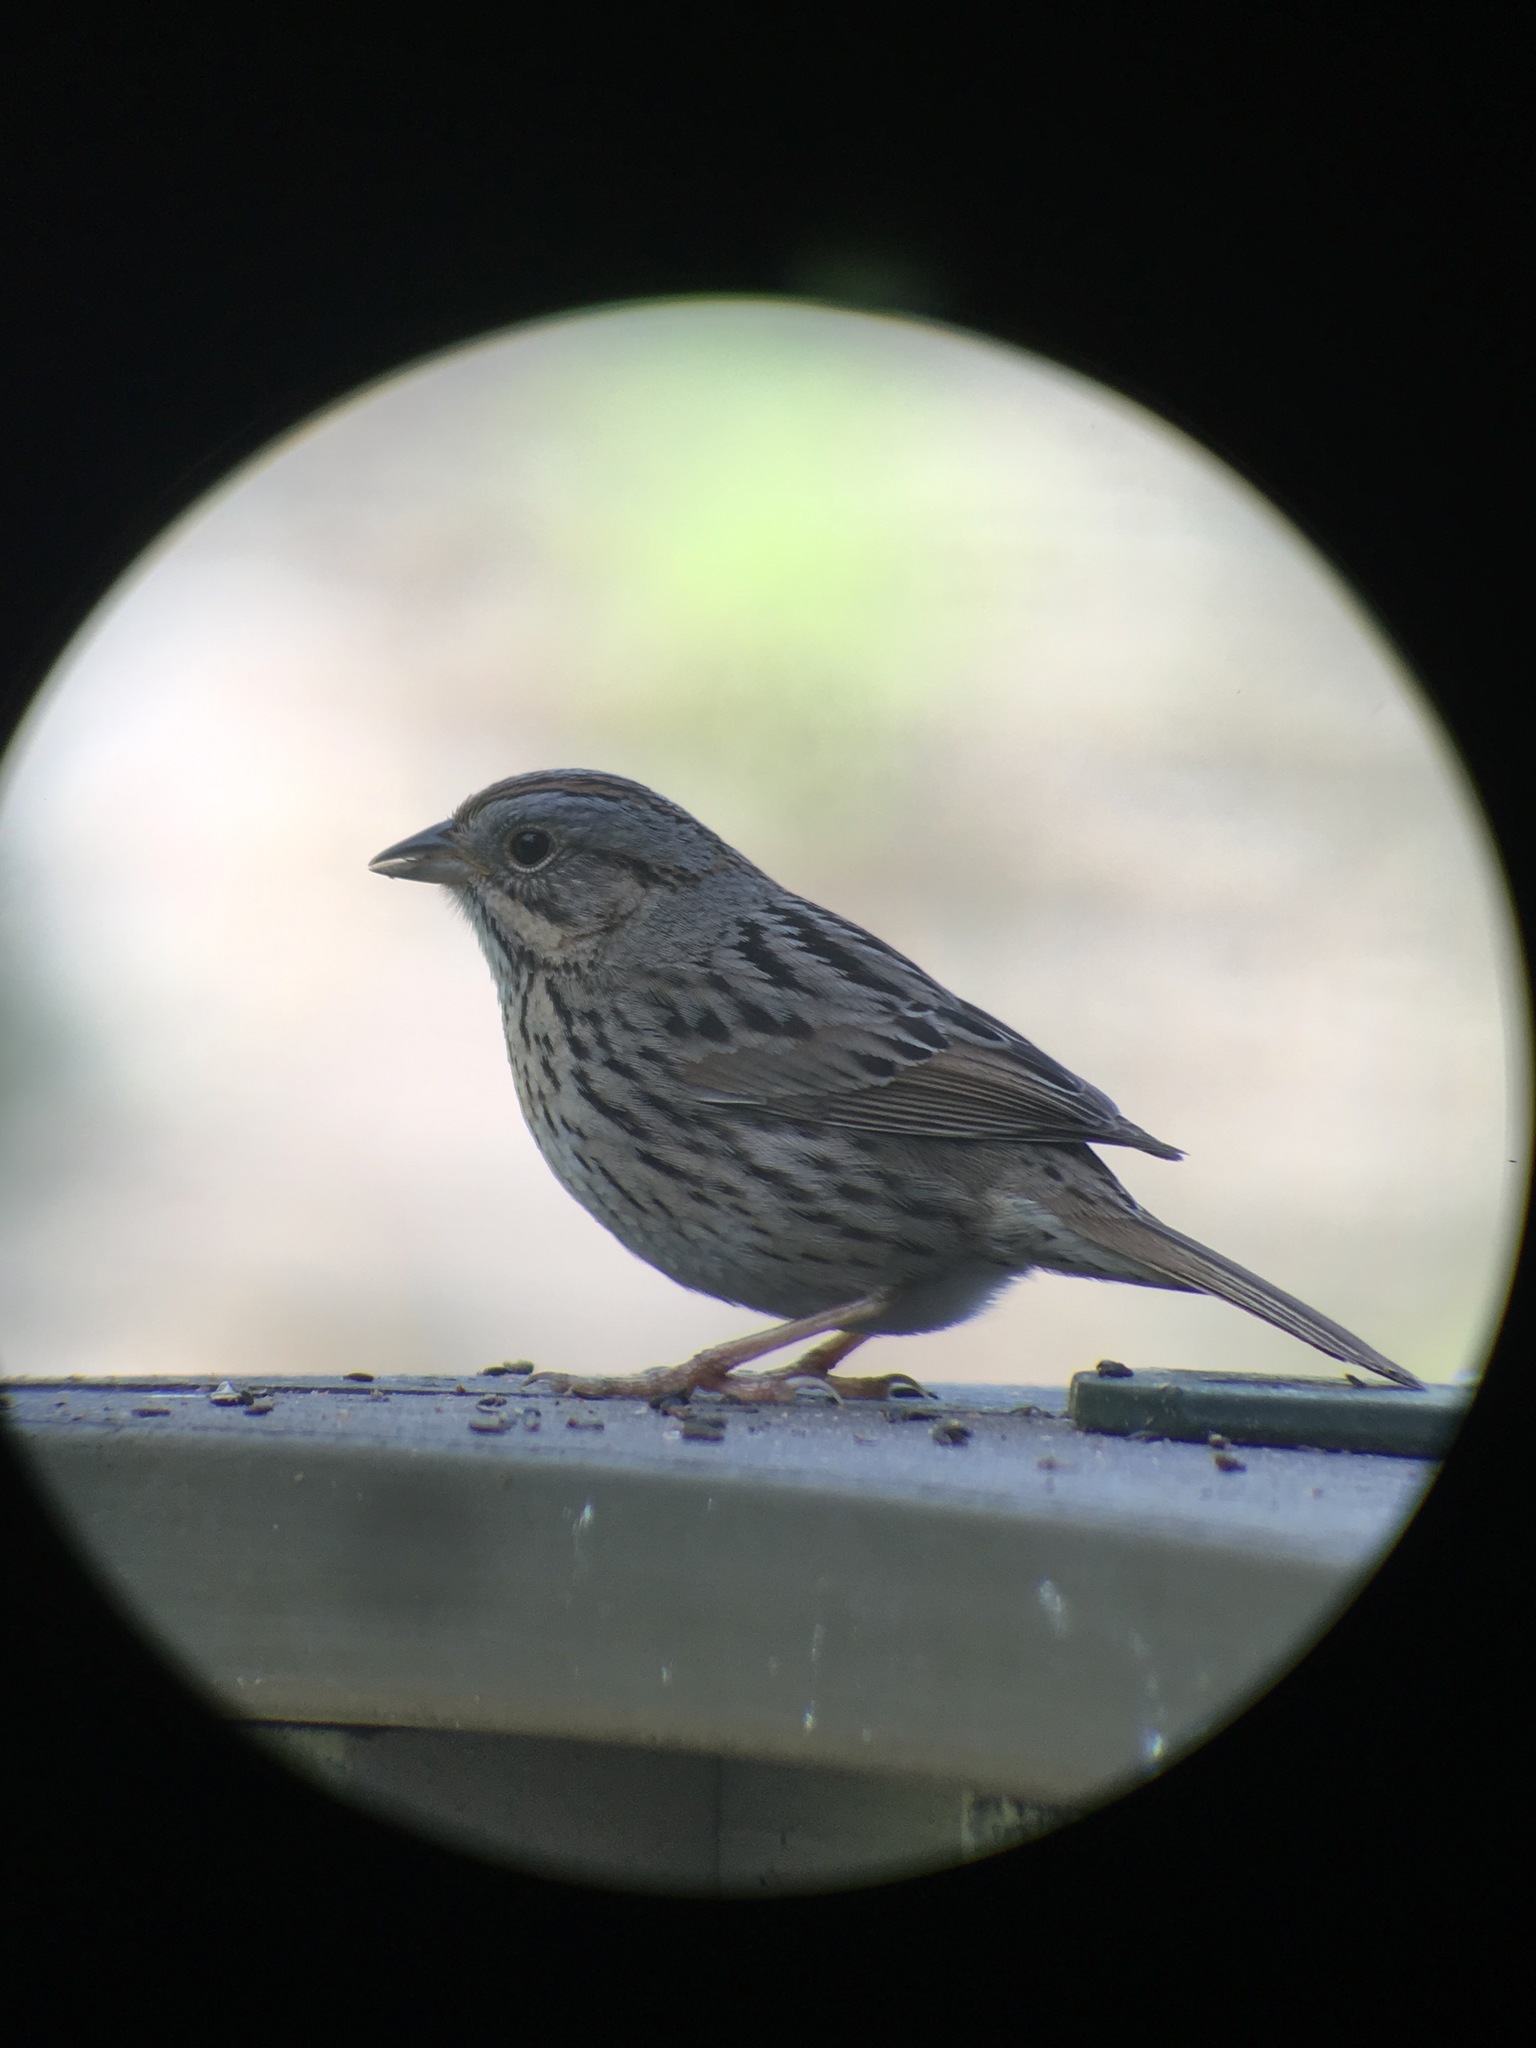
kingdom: Animalia
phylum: Chordata
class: Aves
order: Passeriformes
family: Passerellidae
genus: Melospiza
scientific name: Melospiza lincolnii
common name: Lincoln's sparrow
